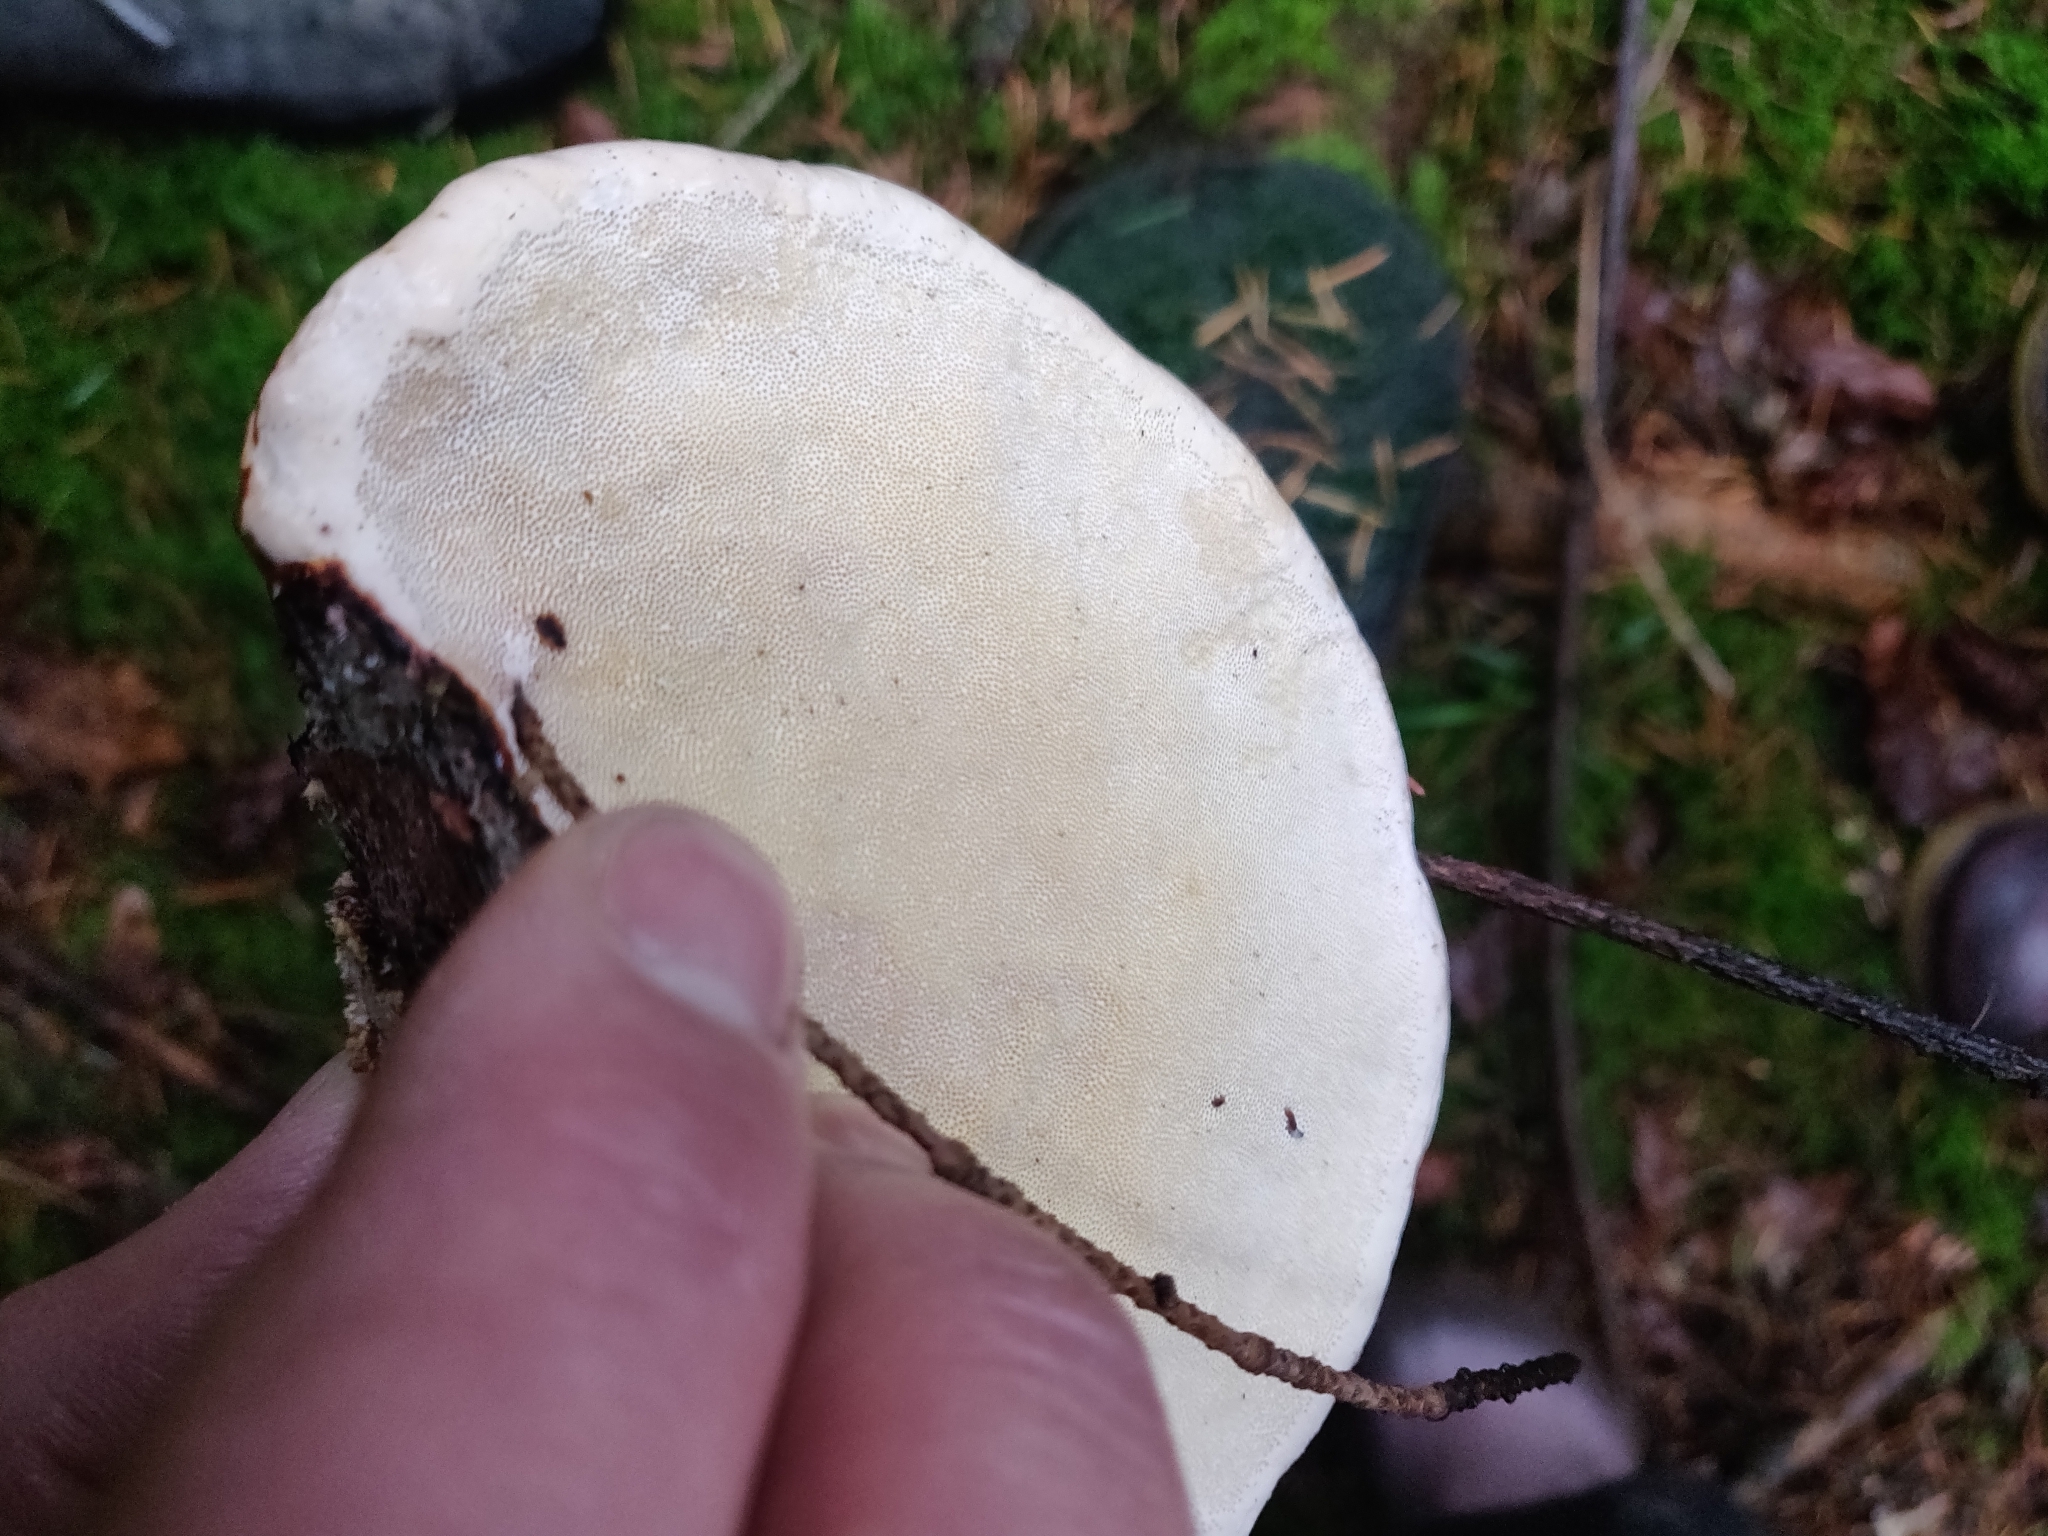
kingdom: Fungi
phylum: Basidiomycota
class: Agaricomycetes
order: Polyporales
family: Fomitopsidaceae
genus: Fomitopsis
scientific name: Fomitopsis pinicola
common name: Red-belted bracket
